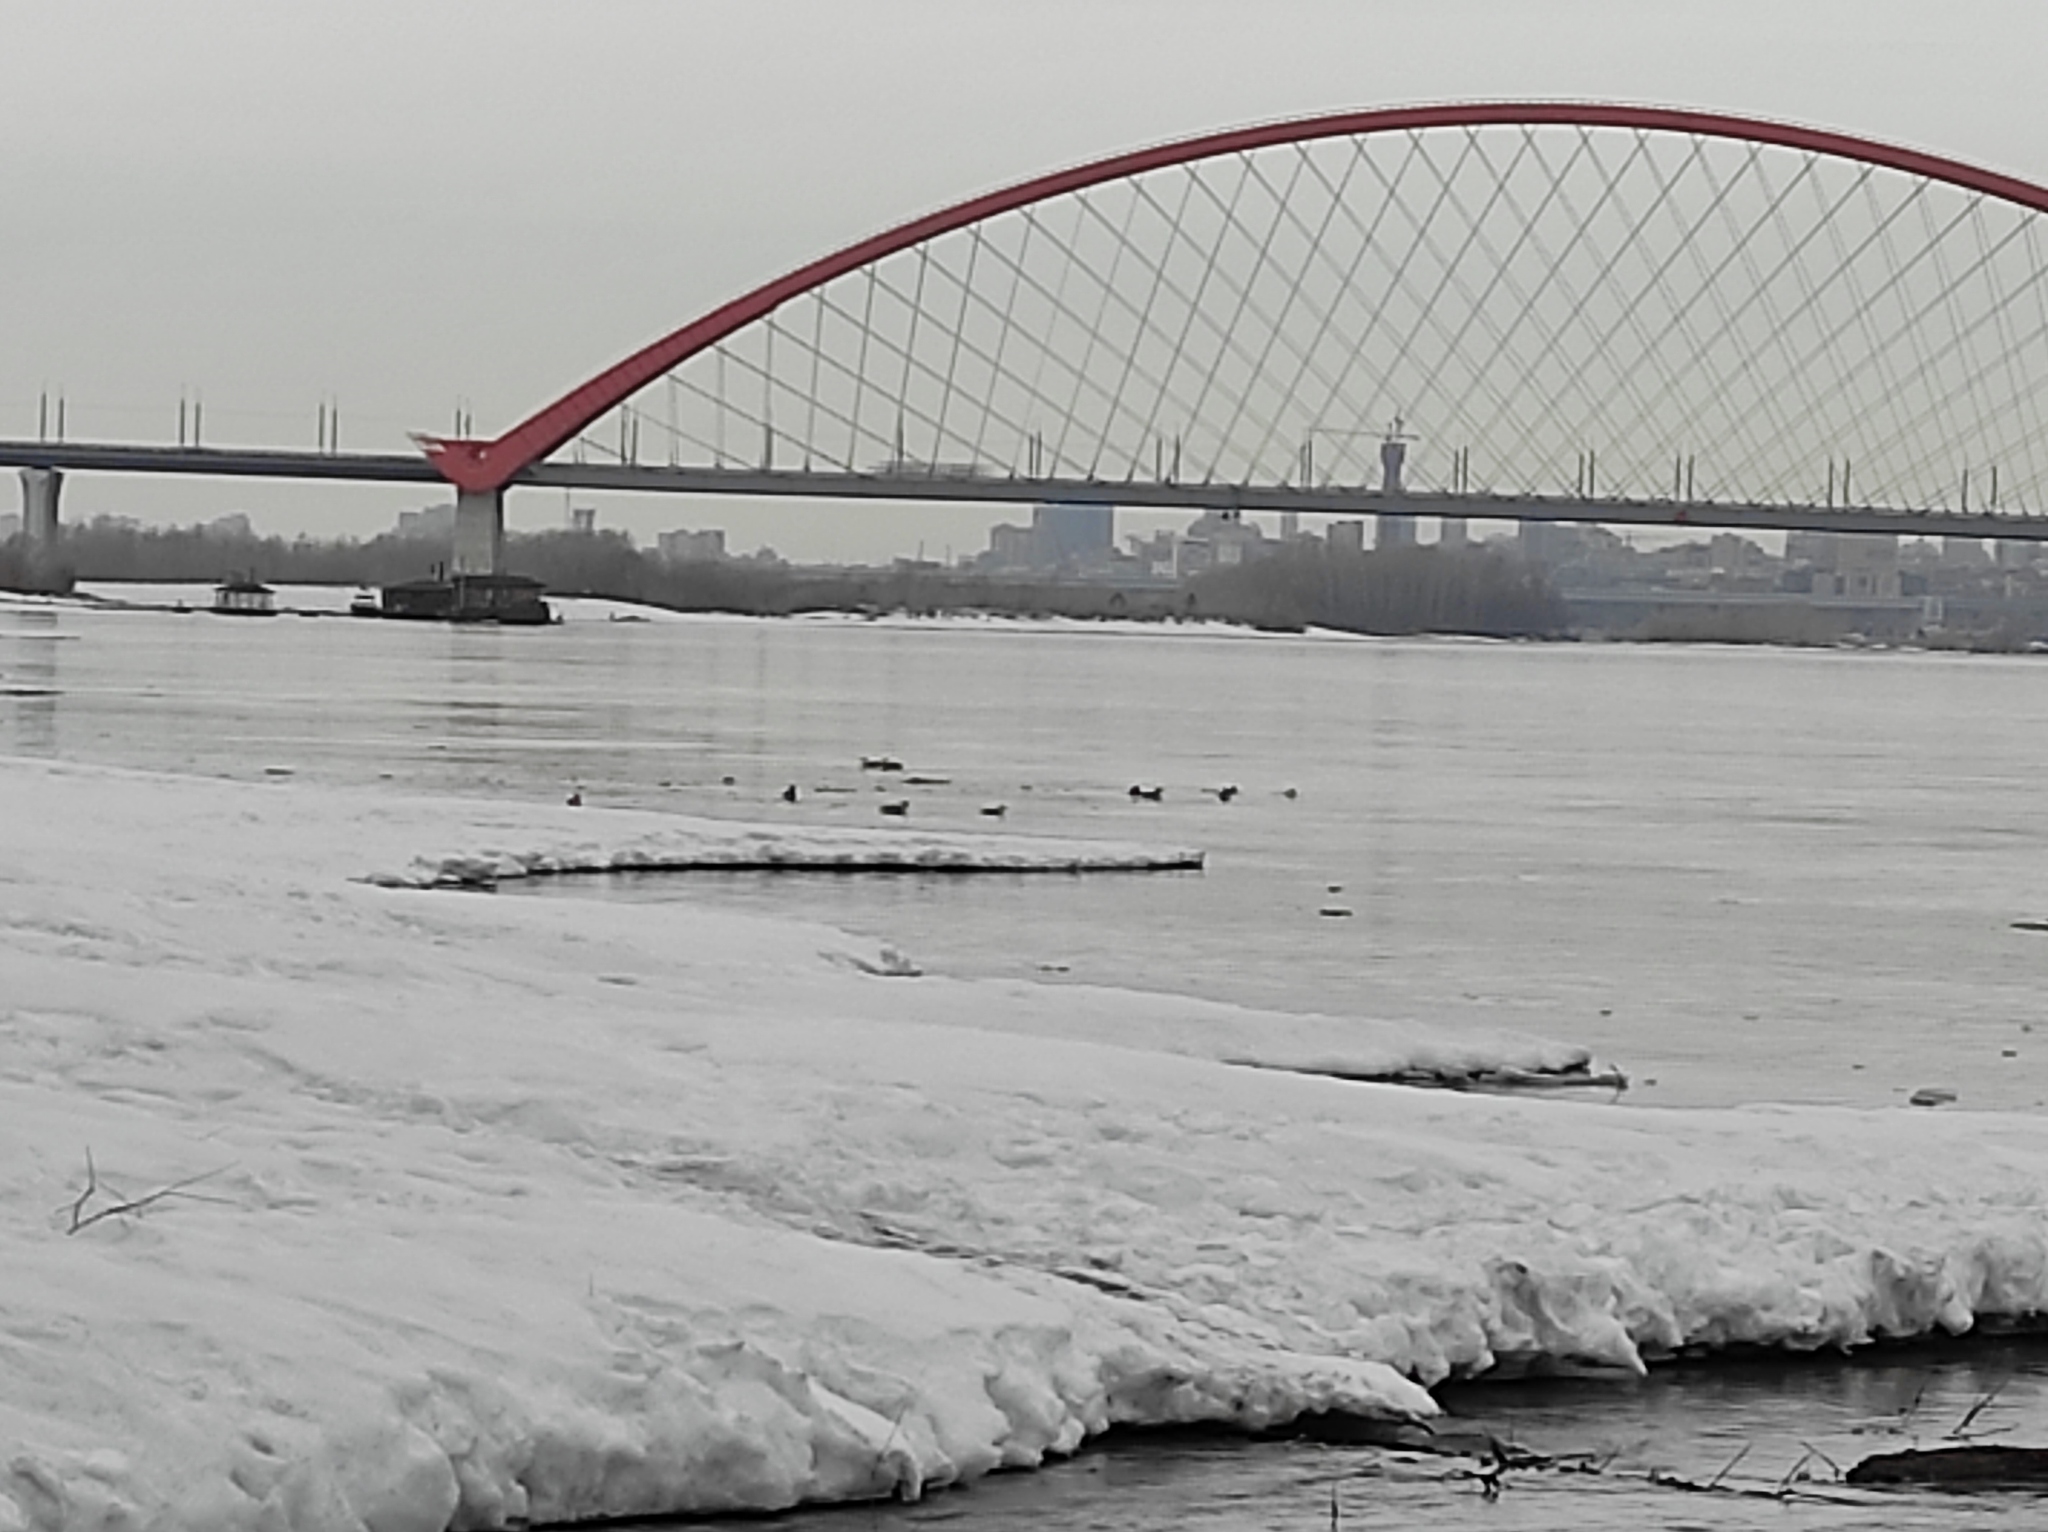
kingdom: Animalia
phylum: Chordata
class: Aves
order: Anseriformes
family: Anatidae
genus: Anas
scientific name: Anas platyrhynchos
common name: Mallard
